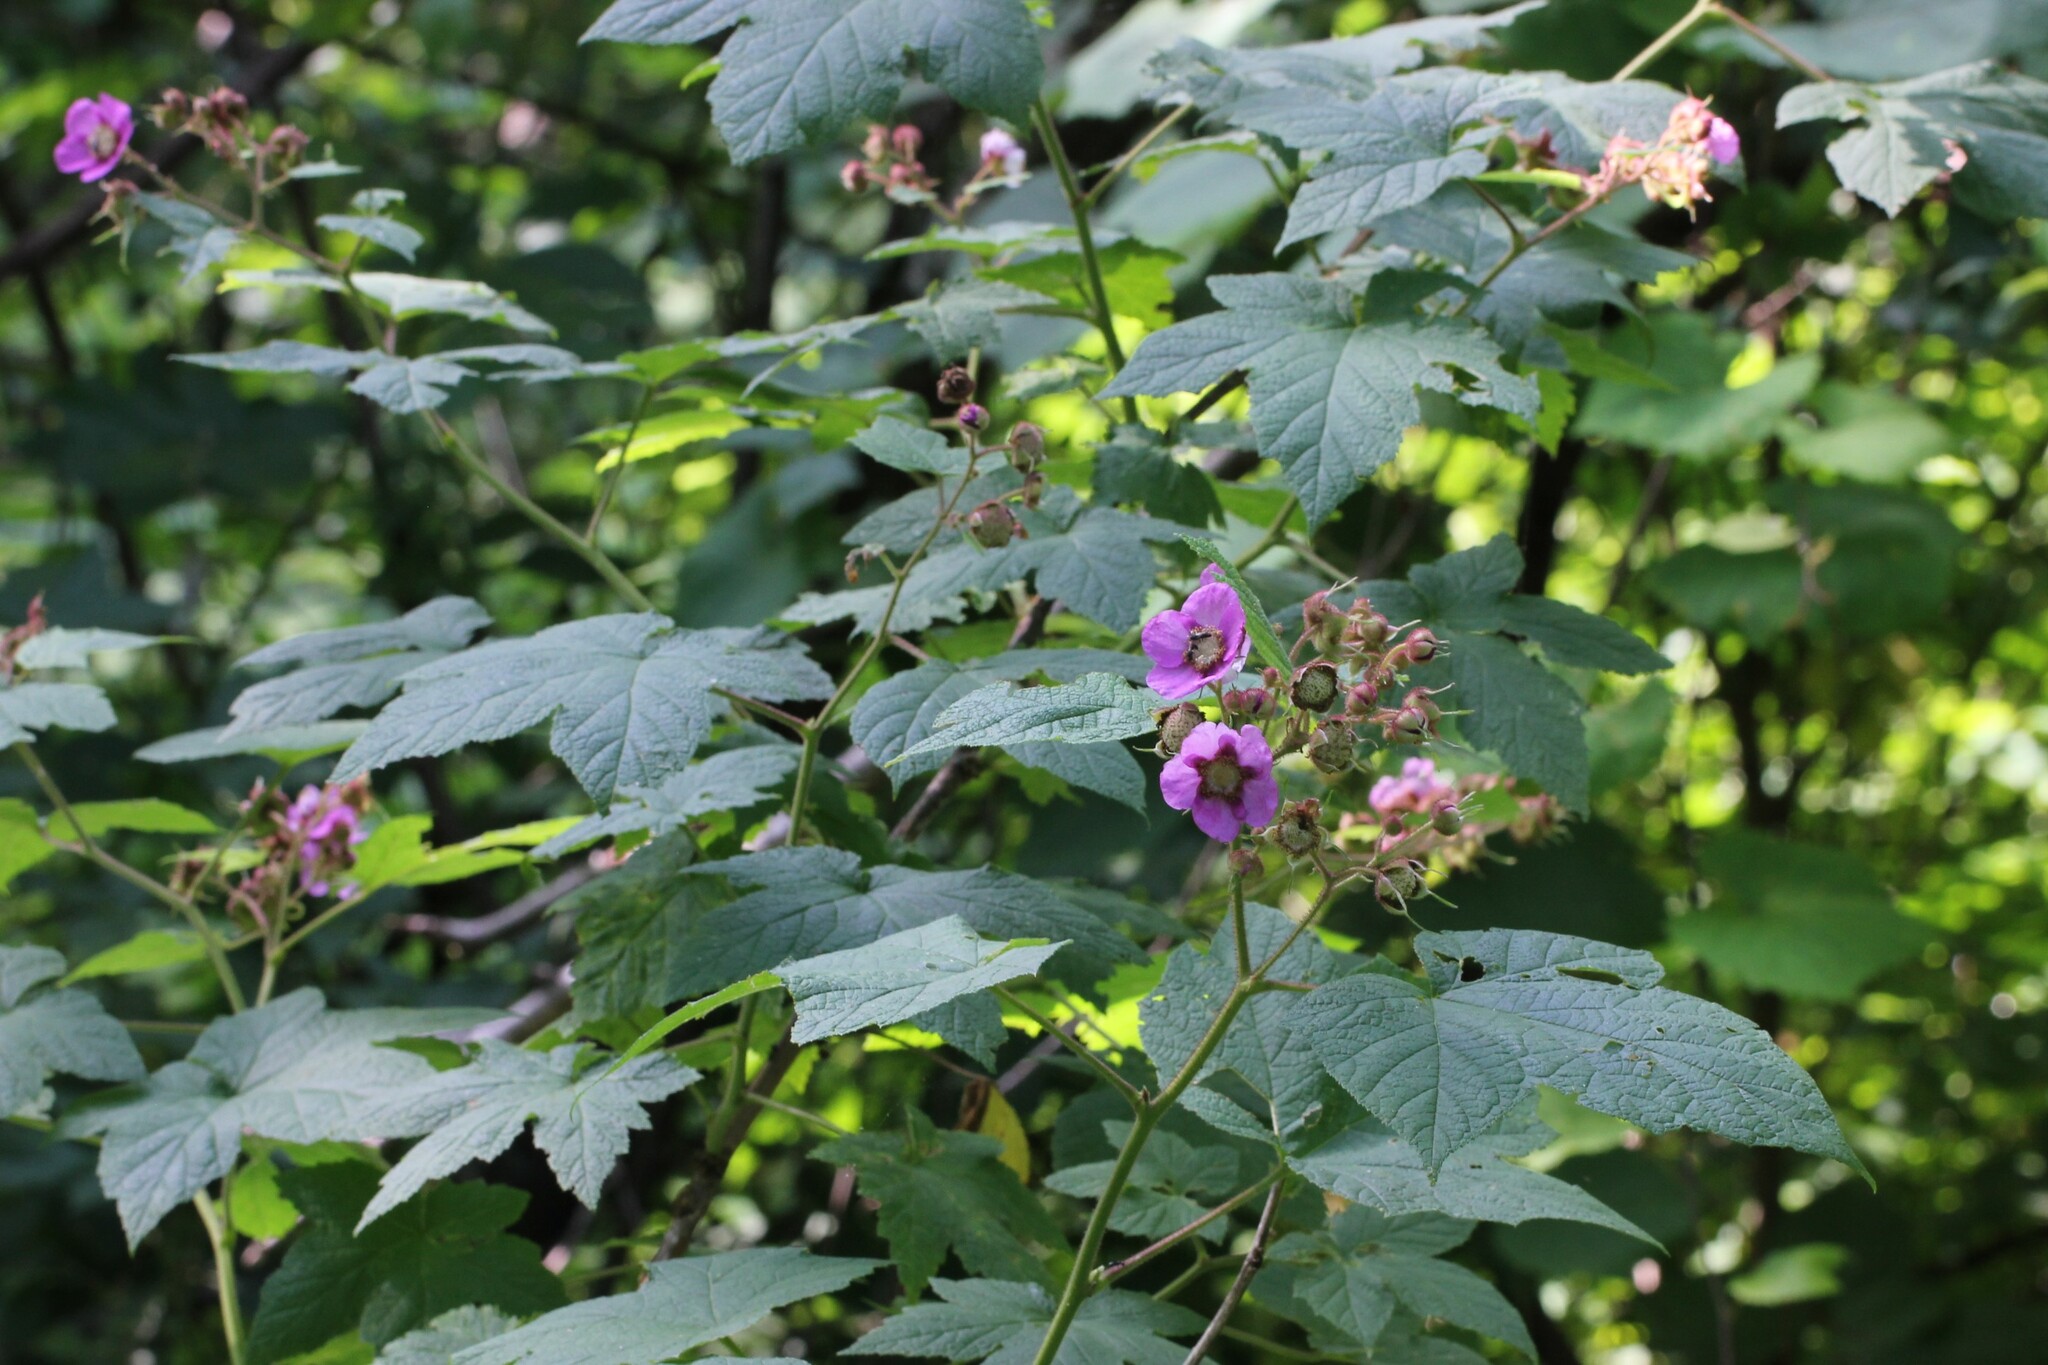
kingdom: Plantae
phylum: Tracheophyta
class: Magnoliopsida
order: Rosales
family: Rosaceae
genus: Rubus
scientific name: Rubus odoratus
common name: Purple-flowered raspberry
